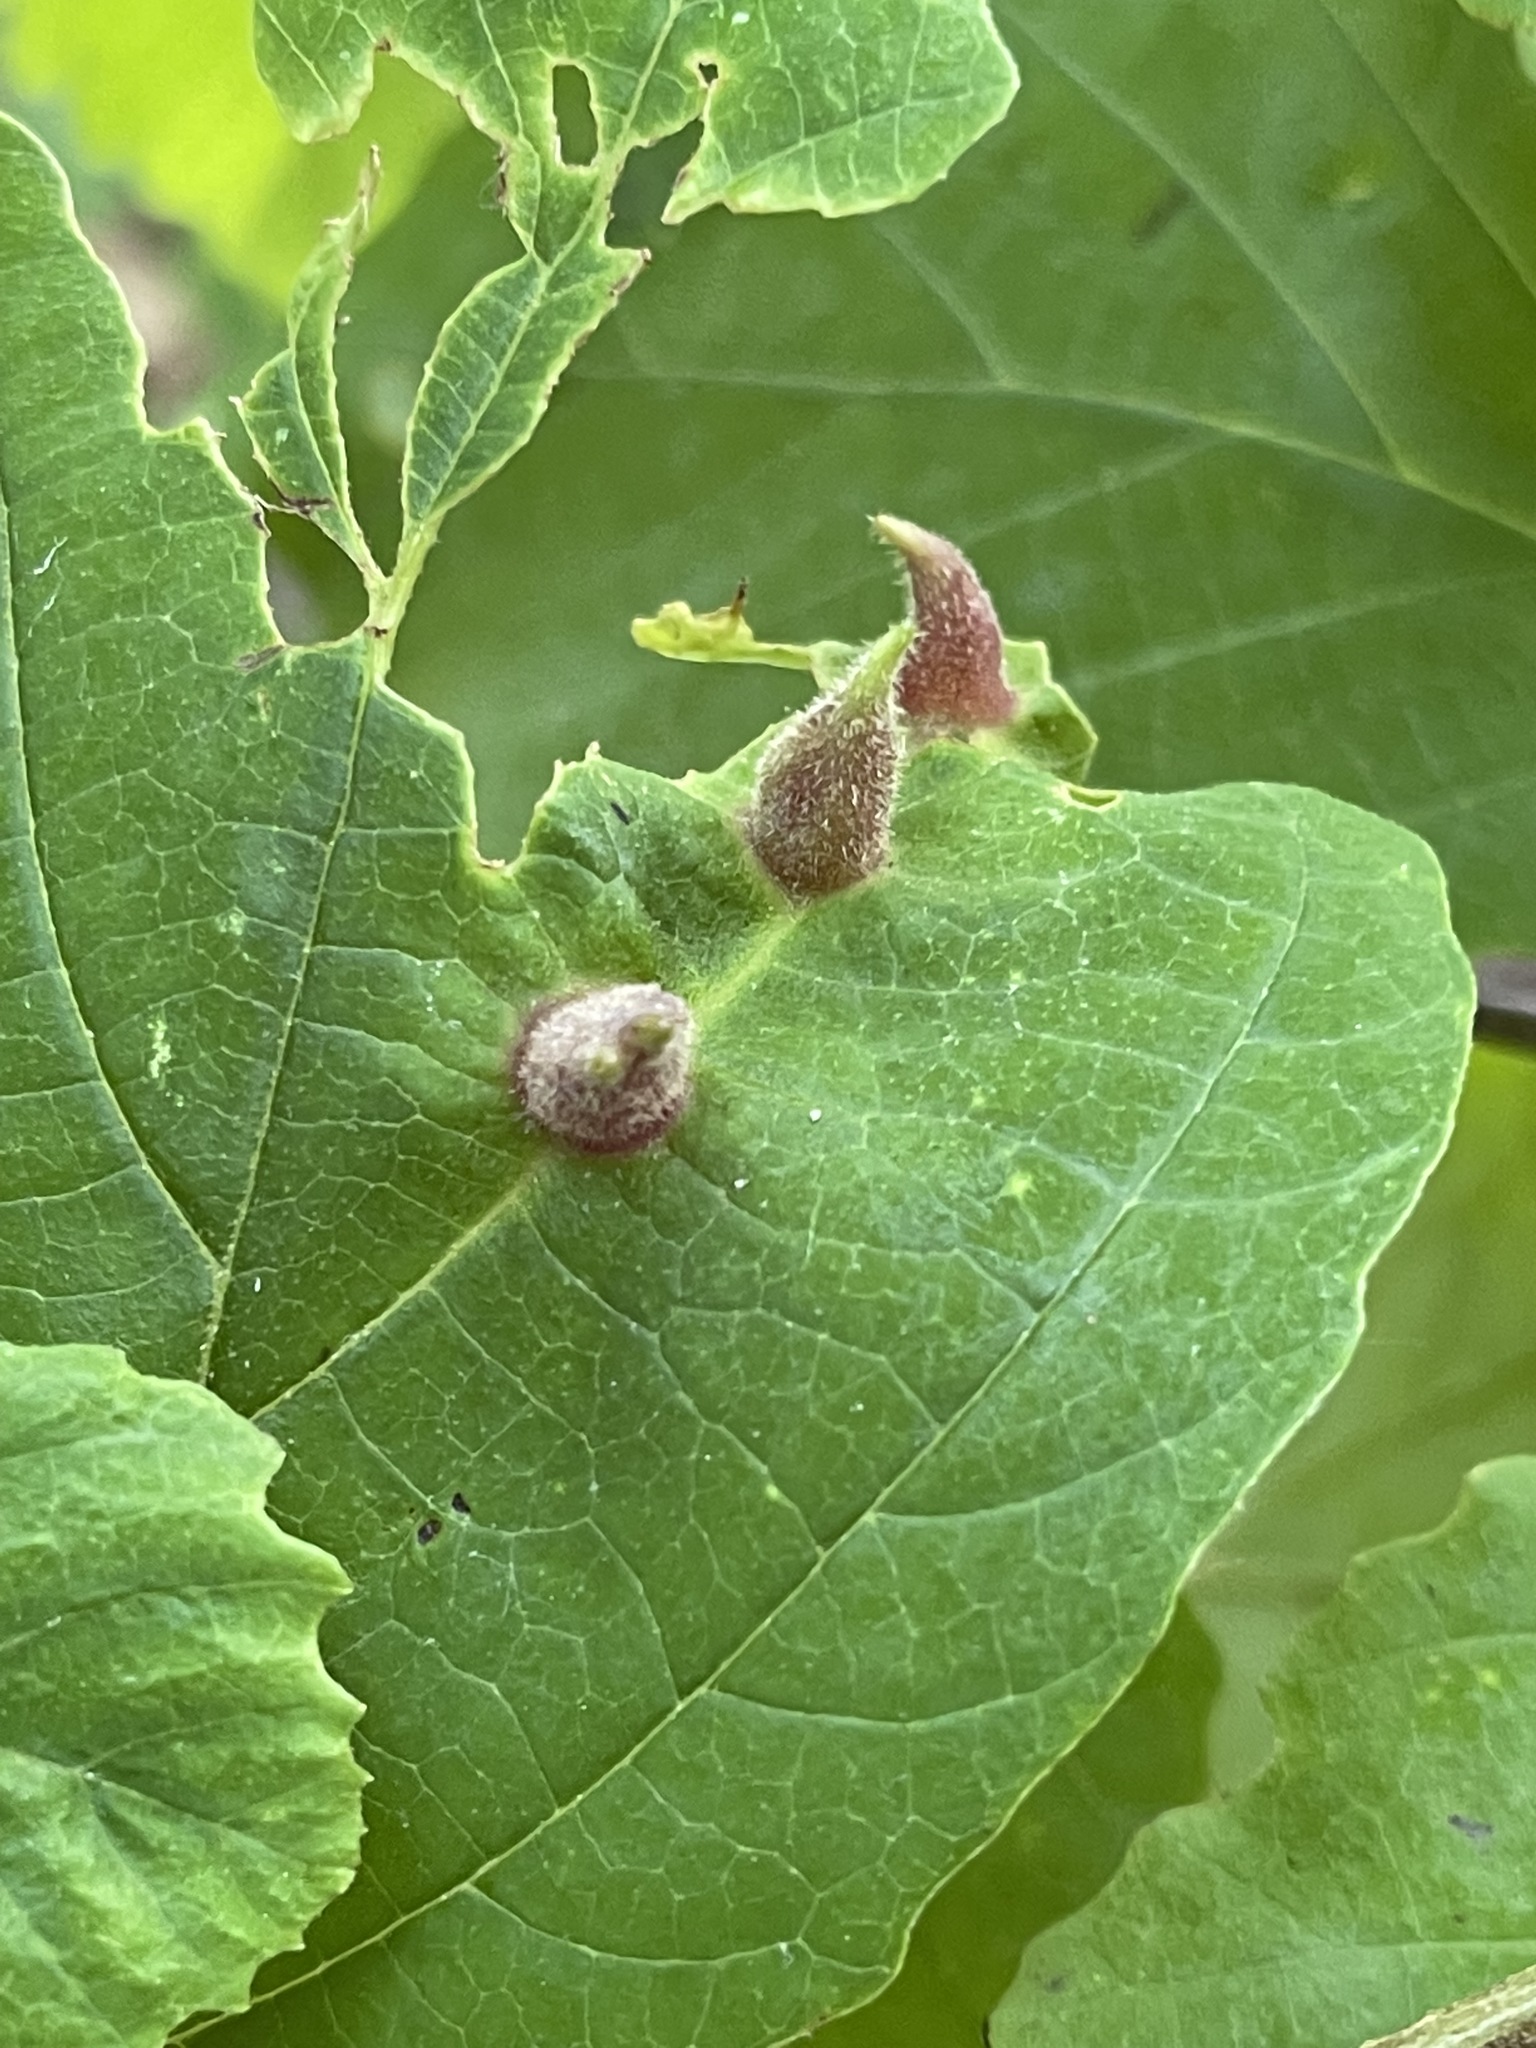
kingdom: Animalia
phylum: Arthropoda
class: Insecta
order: Hemiptera
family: Aphididae
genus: Hormaphis
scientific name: Hormaphis hamamelidis
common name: Witch-hazel cone gall aphid
